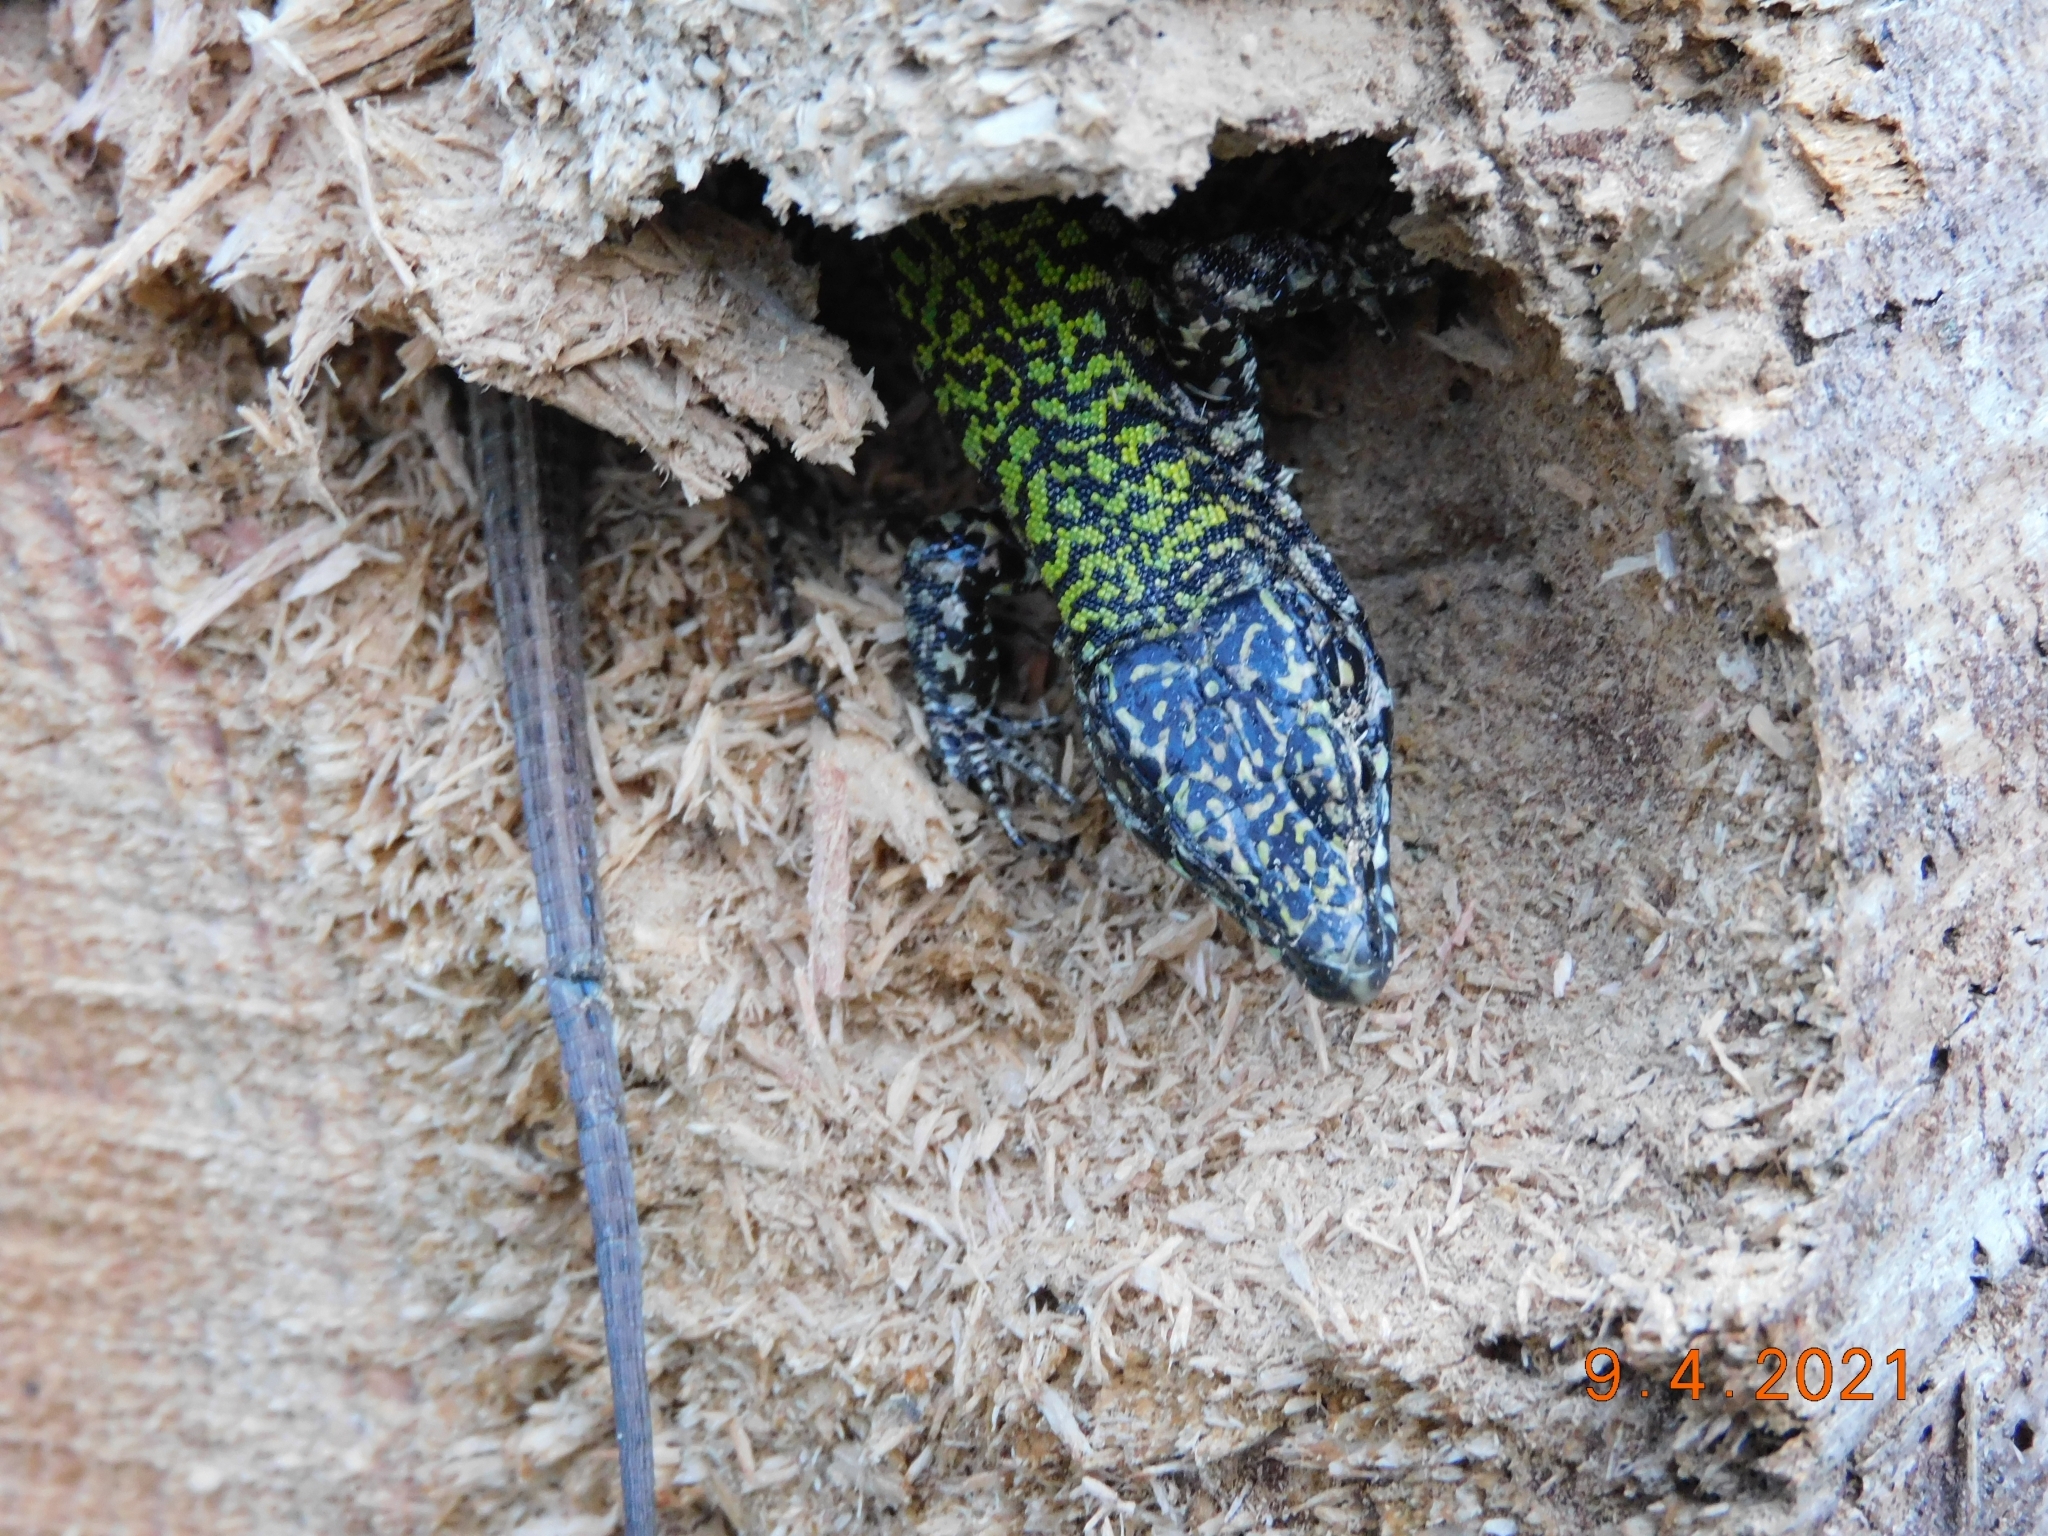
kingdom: Animalia
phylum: Chordata
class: Squamata
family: Lacertidae
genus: Podarcis
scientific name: Podarcis muralis
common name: Common wall lizard
